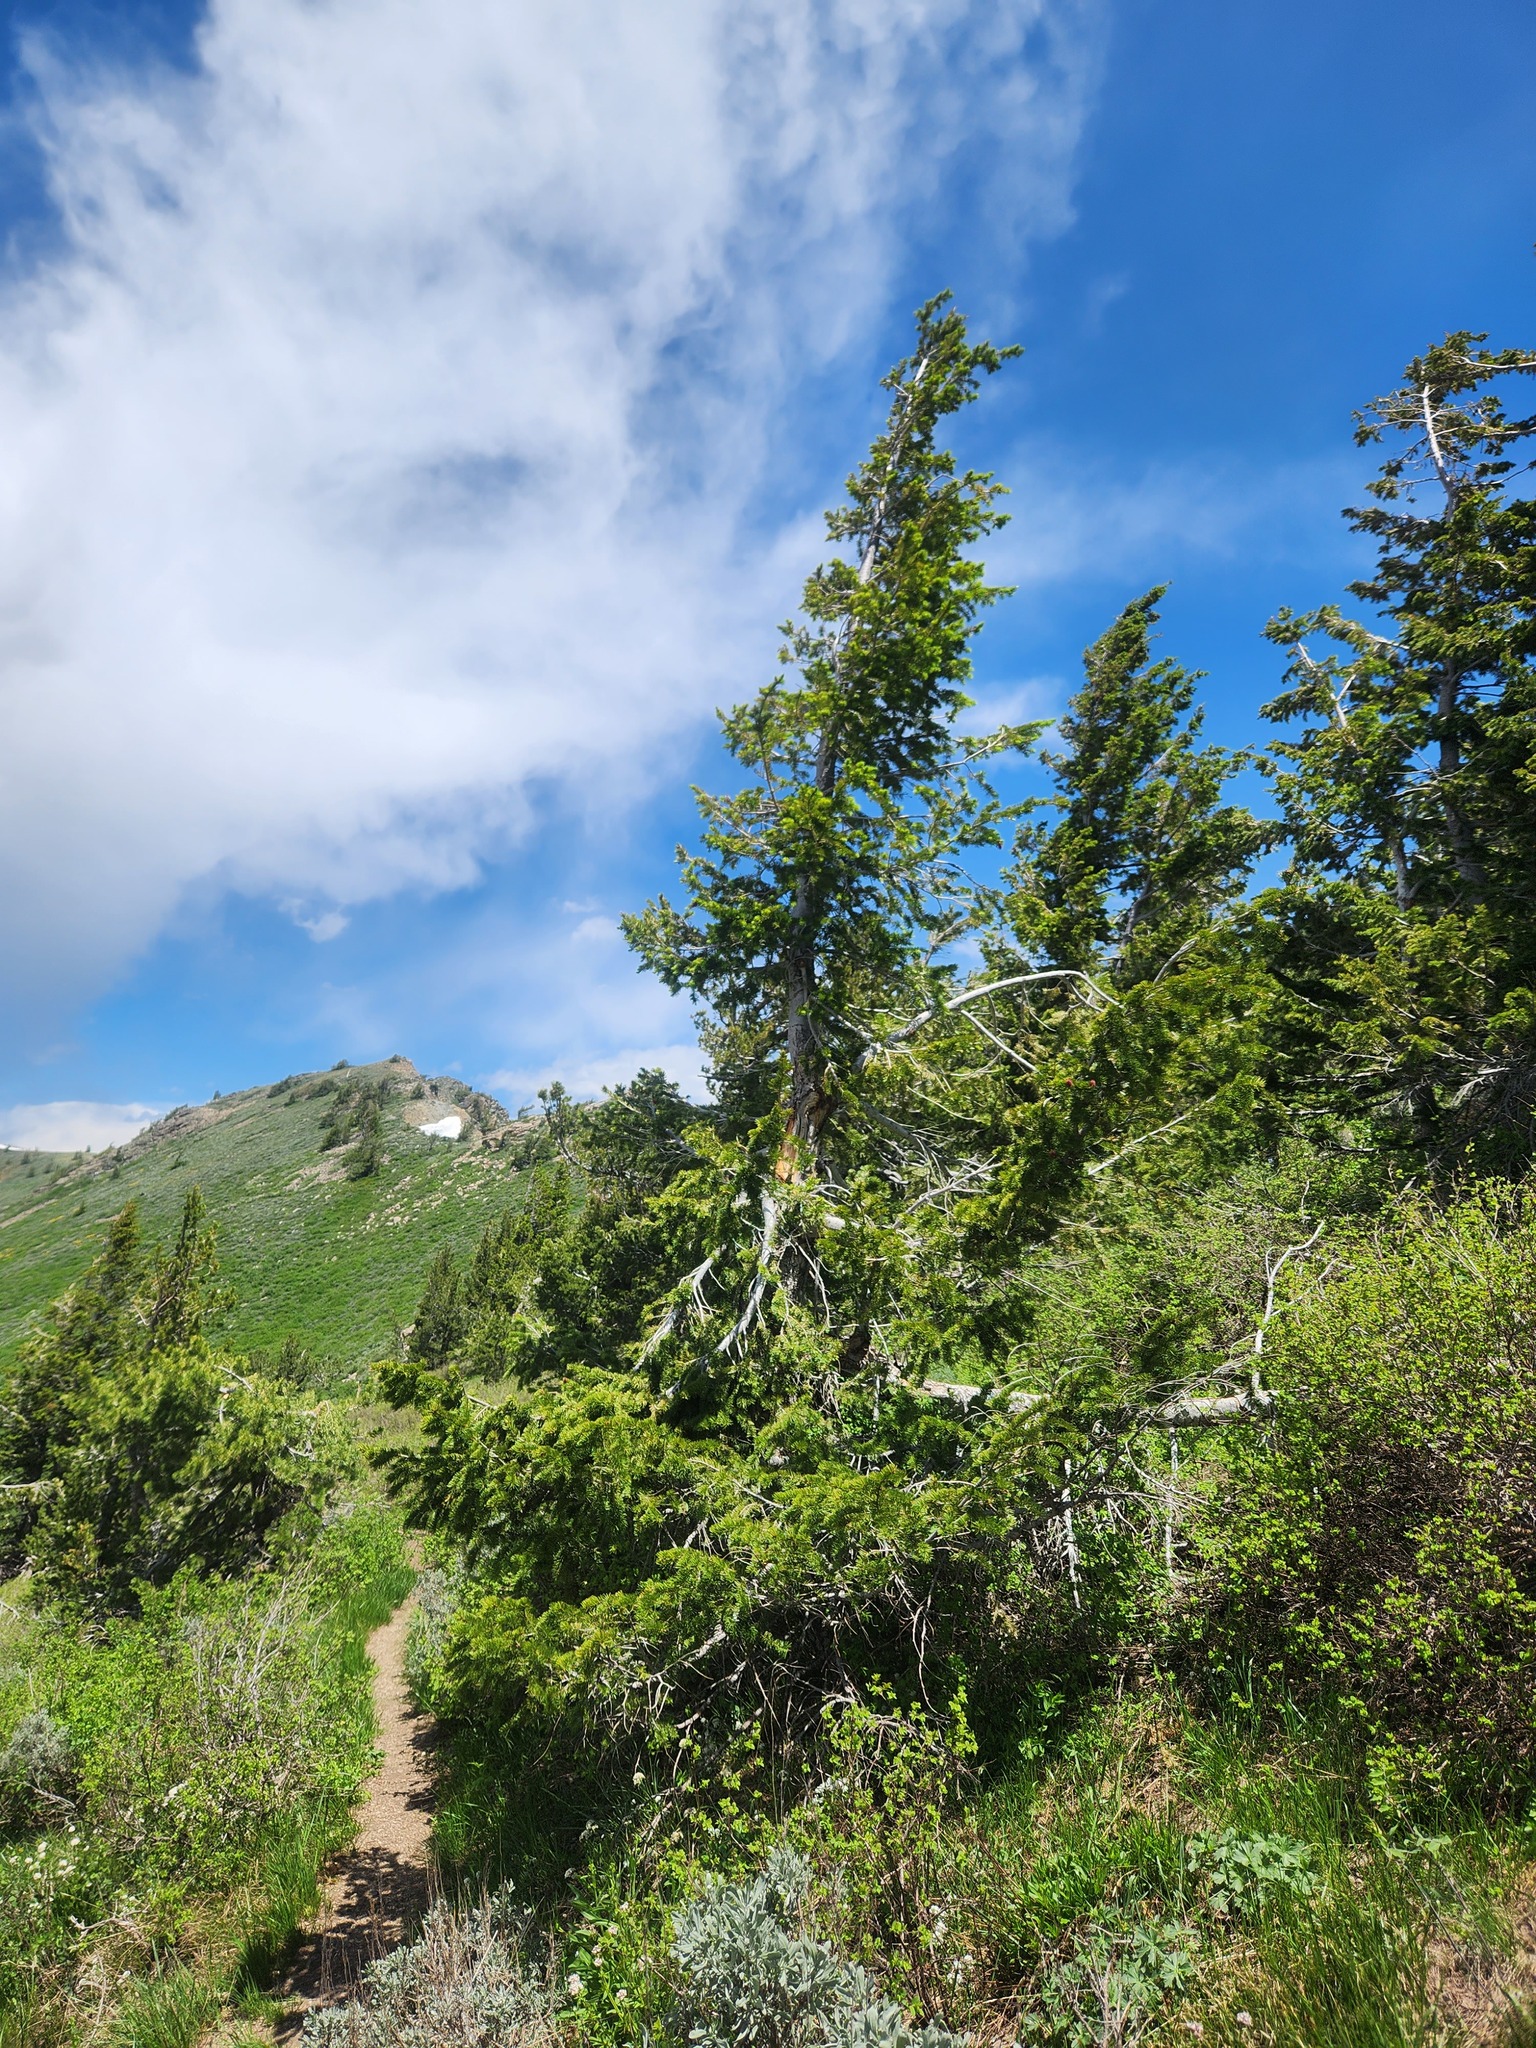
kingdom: Plantae
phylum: Tracheophyta
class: Pinopsida
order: Pinales
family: Pinaceae
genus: Pseudotsuga
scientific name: Pseudotsuga menziesii
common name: Douglas fir
